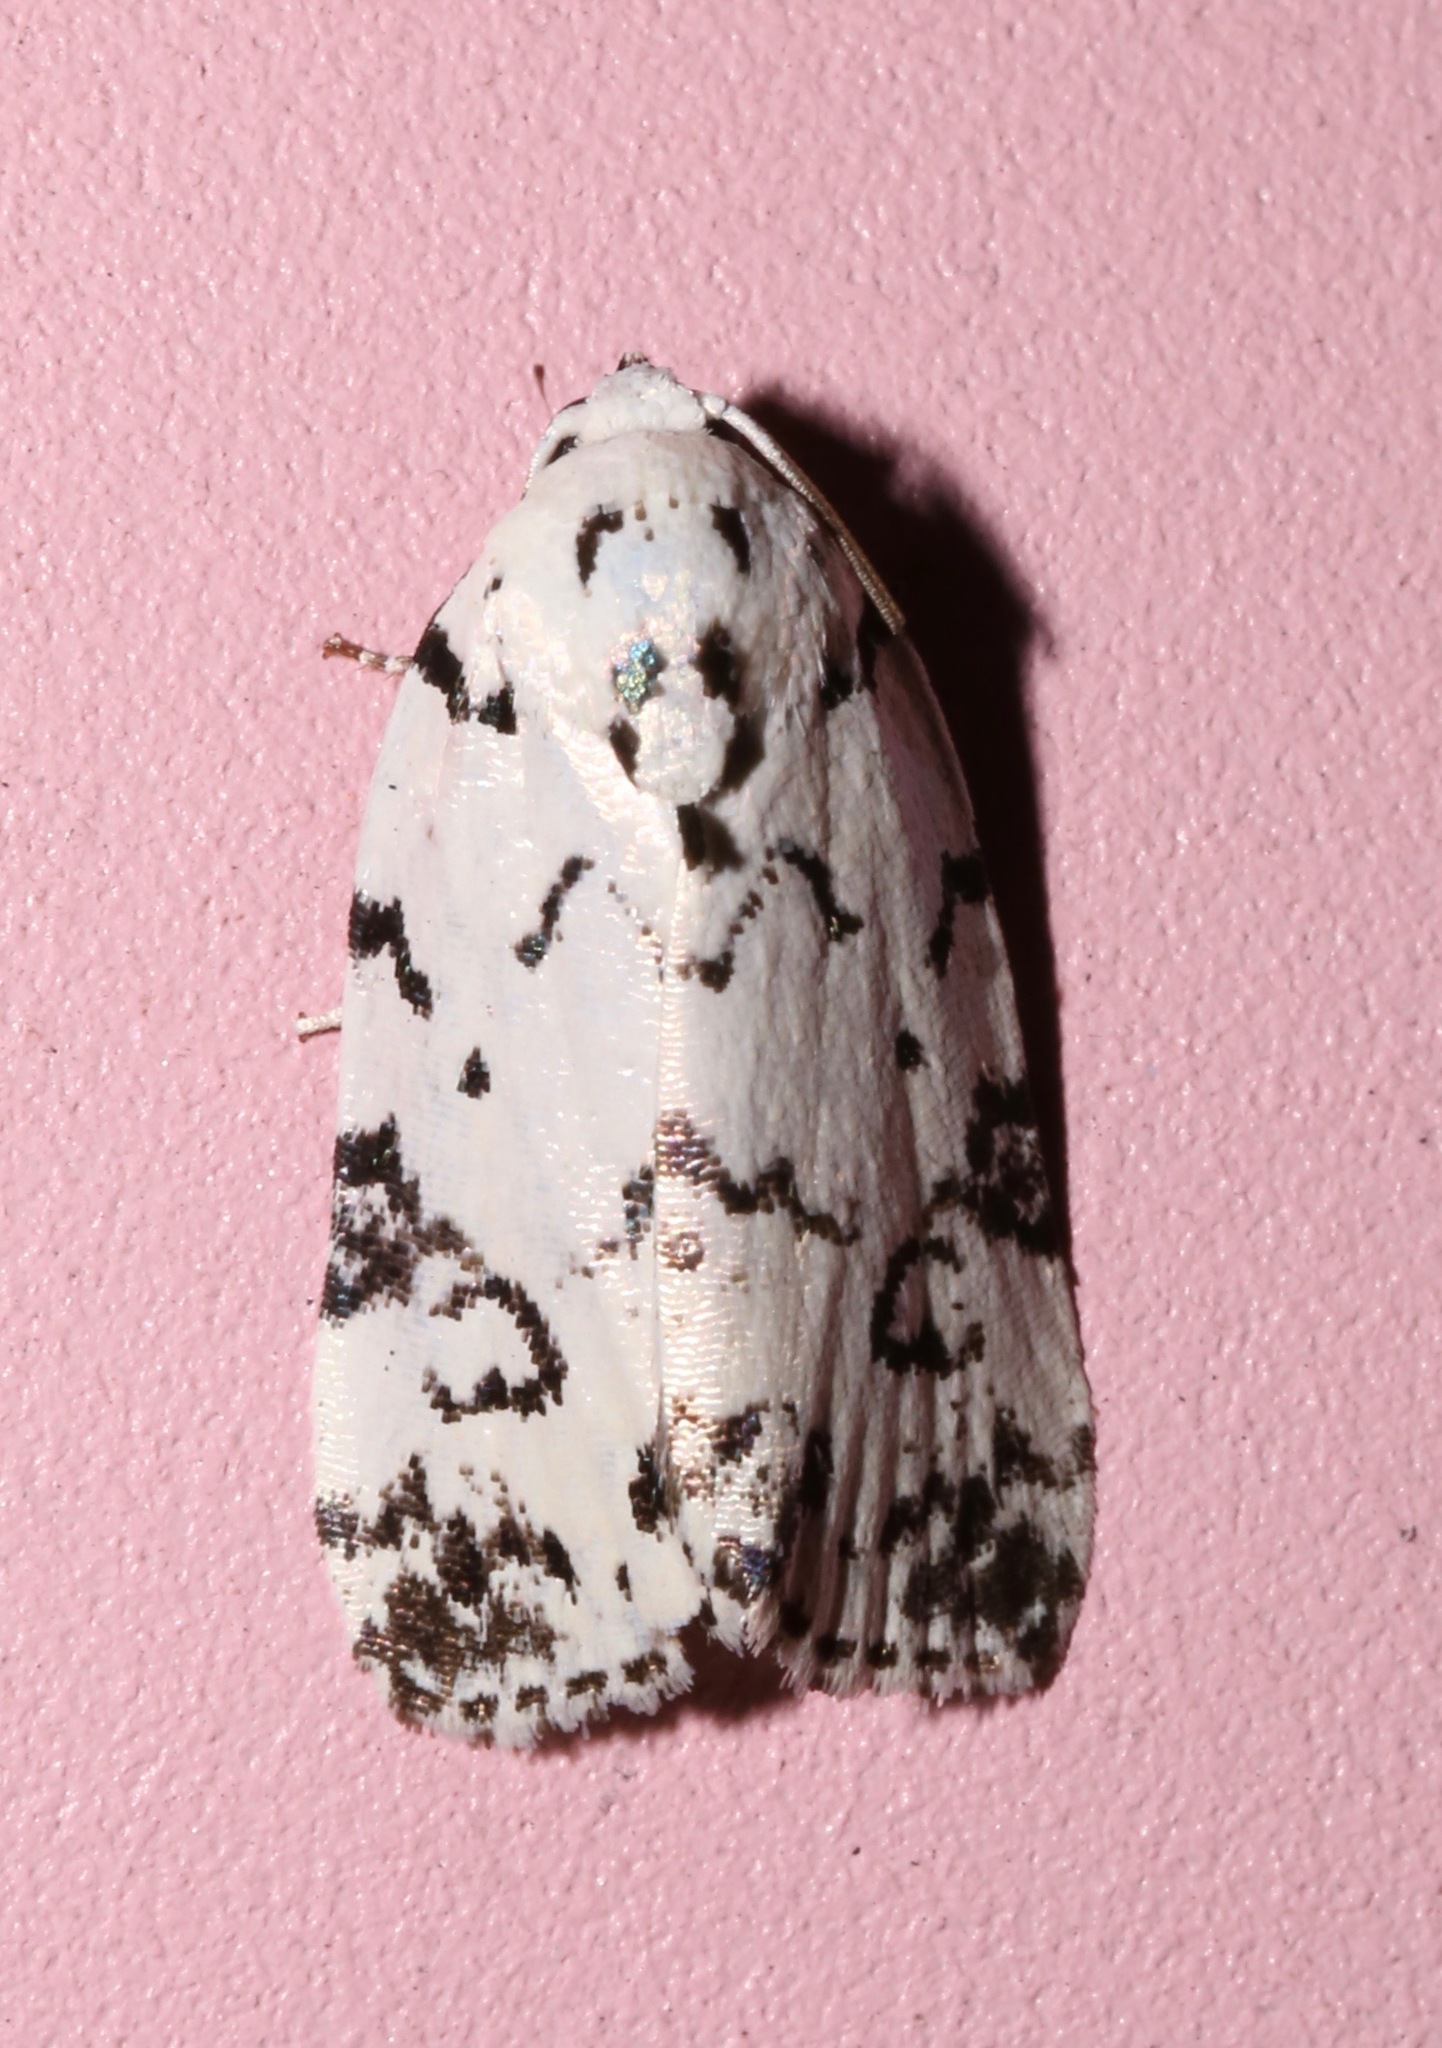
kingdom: Animalia
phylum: Arthropoda
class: Insecta
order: Lepidoptera
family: Noctuidae
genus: Polygrammate
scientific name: Polygrammate hebraeicum
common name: Hebrew moth
